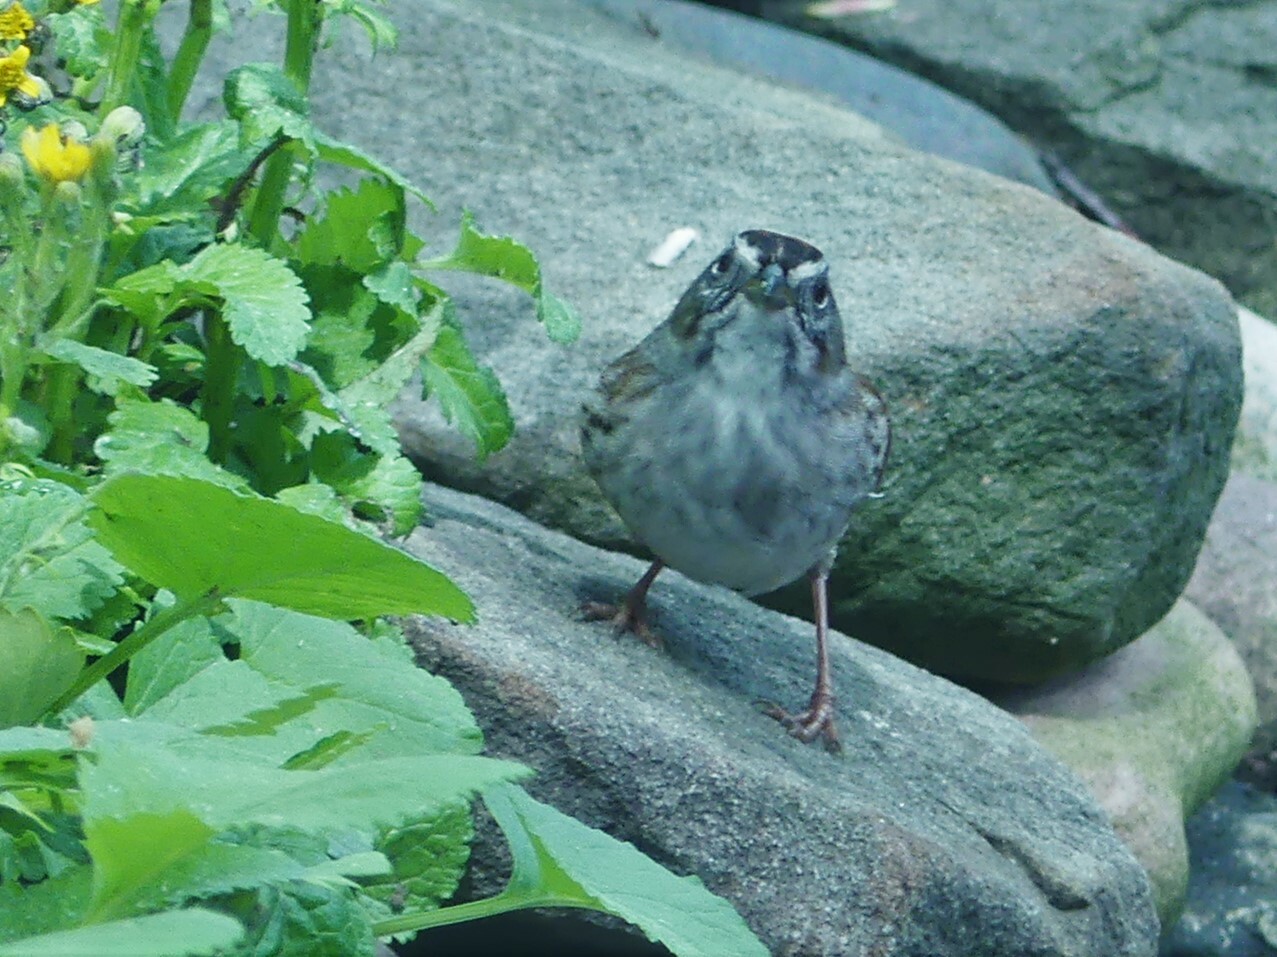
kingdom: Animalia
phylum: Chordata
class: Aves
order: Passeriformes
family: Passerellidae
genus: Melospiza
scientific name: Melospiza georgiana
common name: Swamp sparrow
